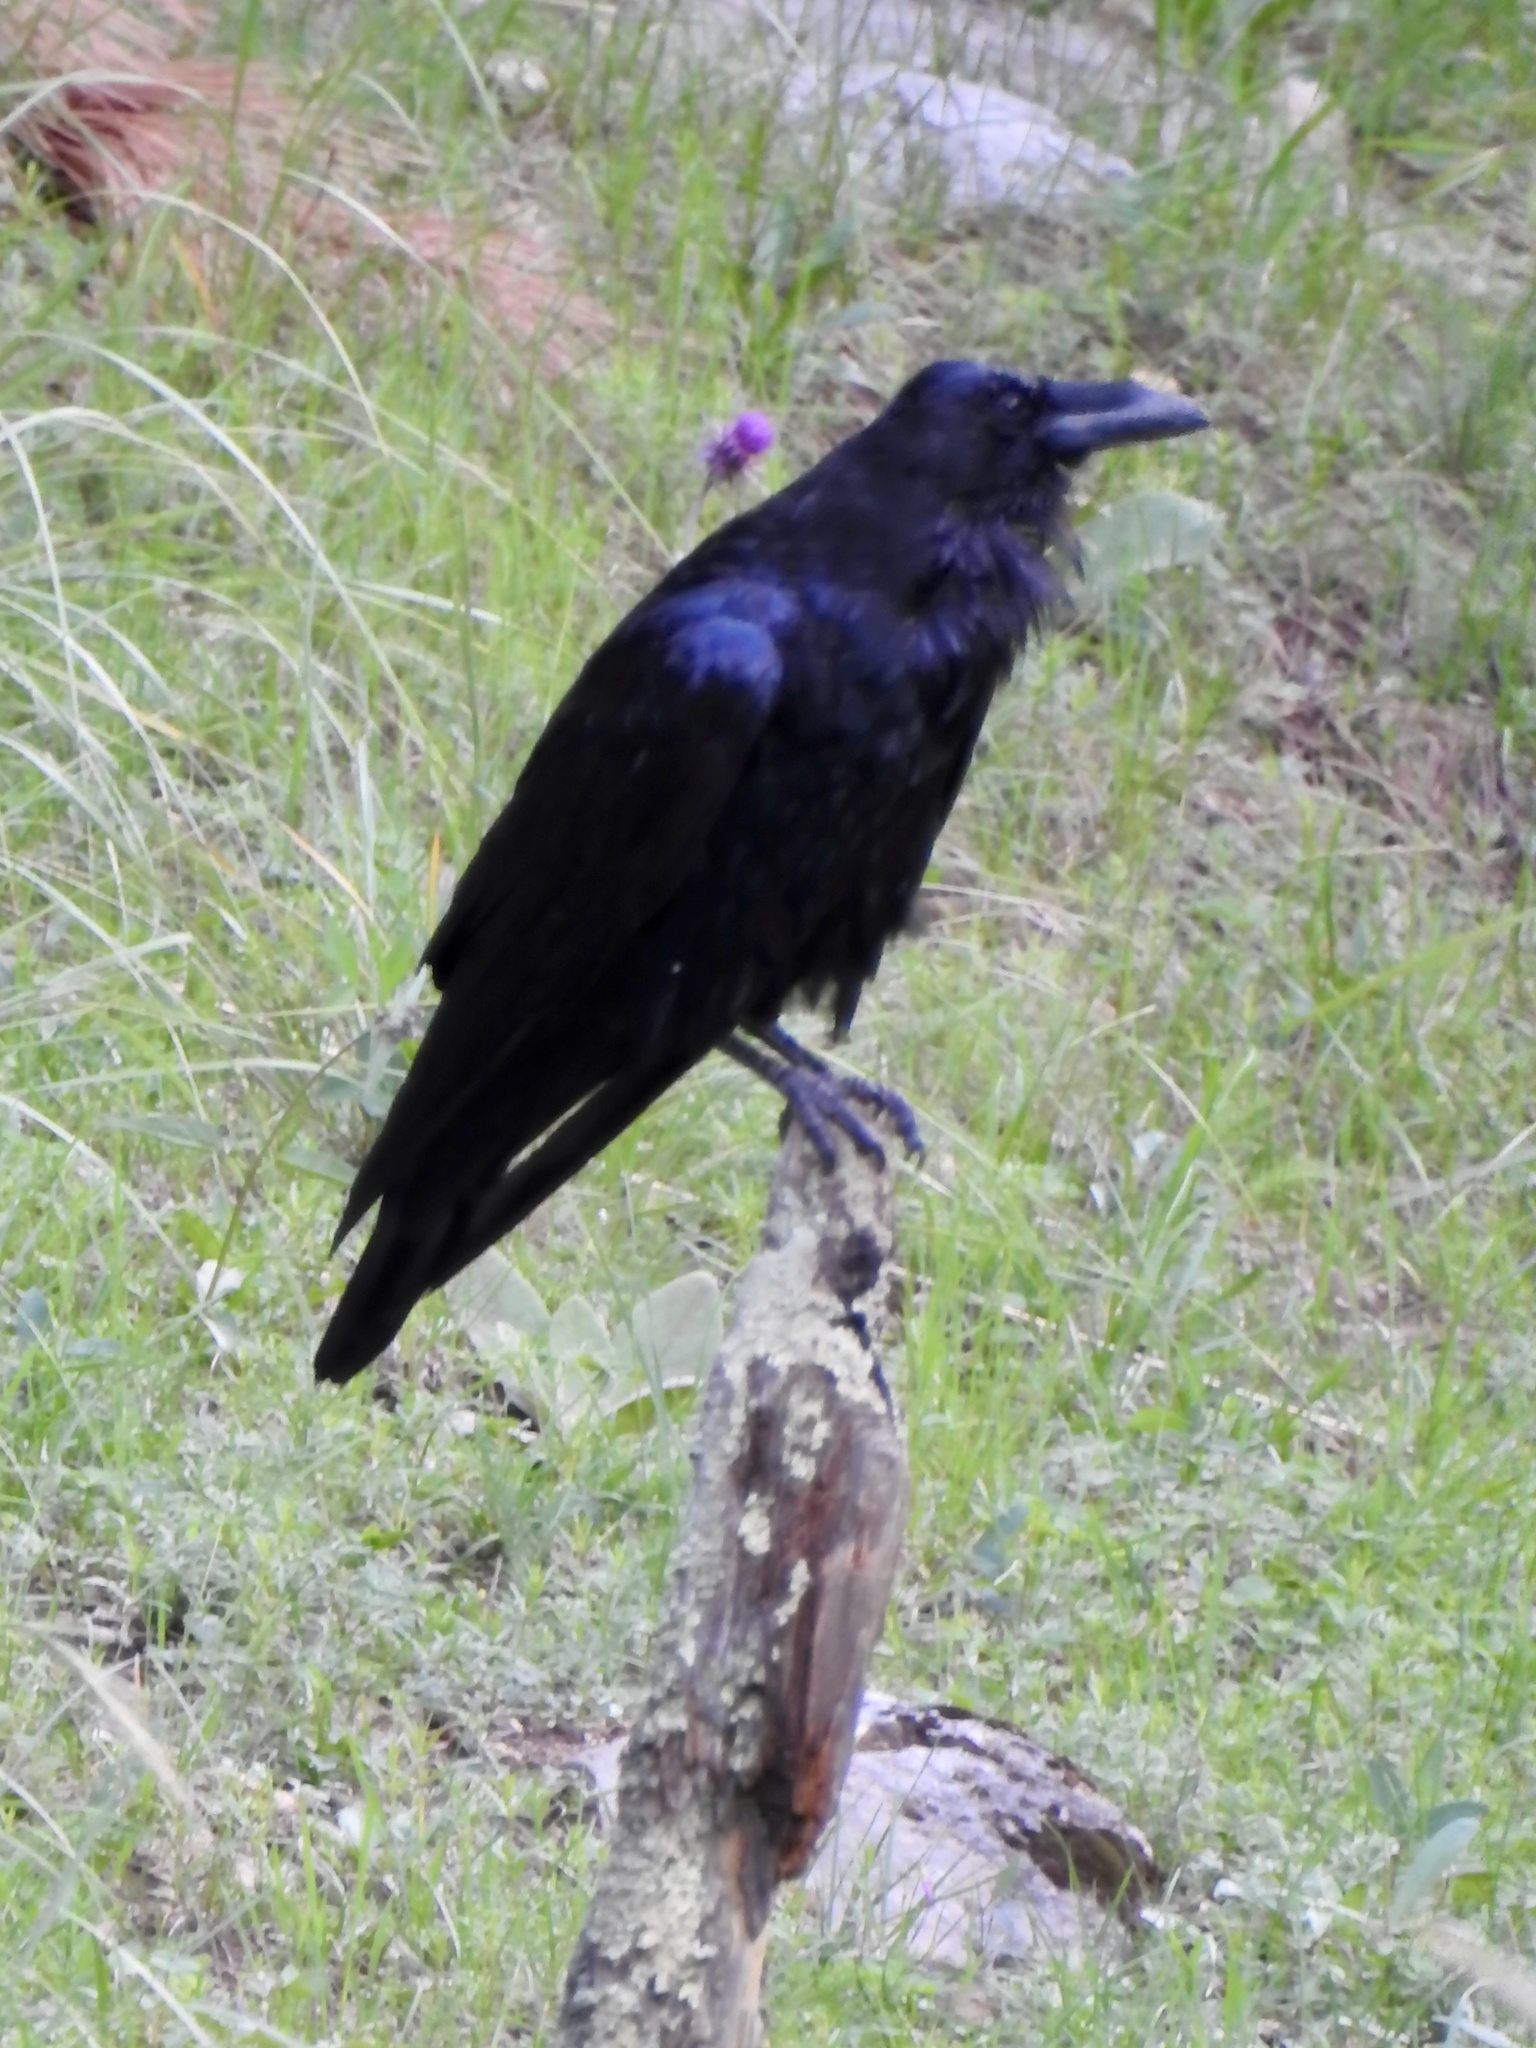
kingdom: Animalia
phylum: Chordata
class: Aves
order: Passeriformes
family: Corvidae
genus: Corvus
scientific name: Corvus corax
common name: Common raven
